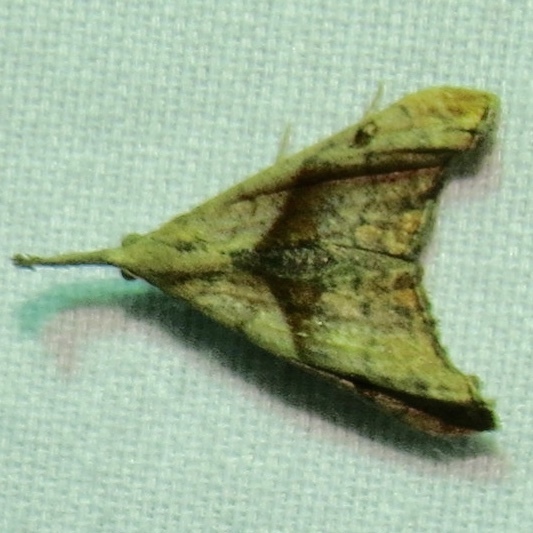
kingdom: Animalia
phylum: Arthropoda
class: Insecta
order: Lepidoptera
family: Erebidae
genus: Palthis
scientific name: Palthis angulalis
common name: Dark-spotted palthis moth
